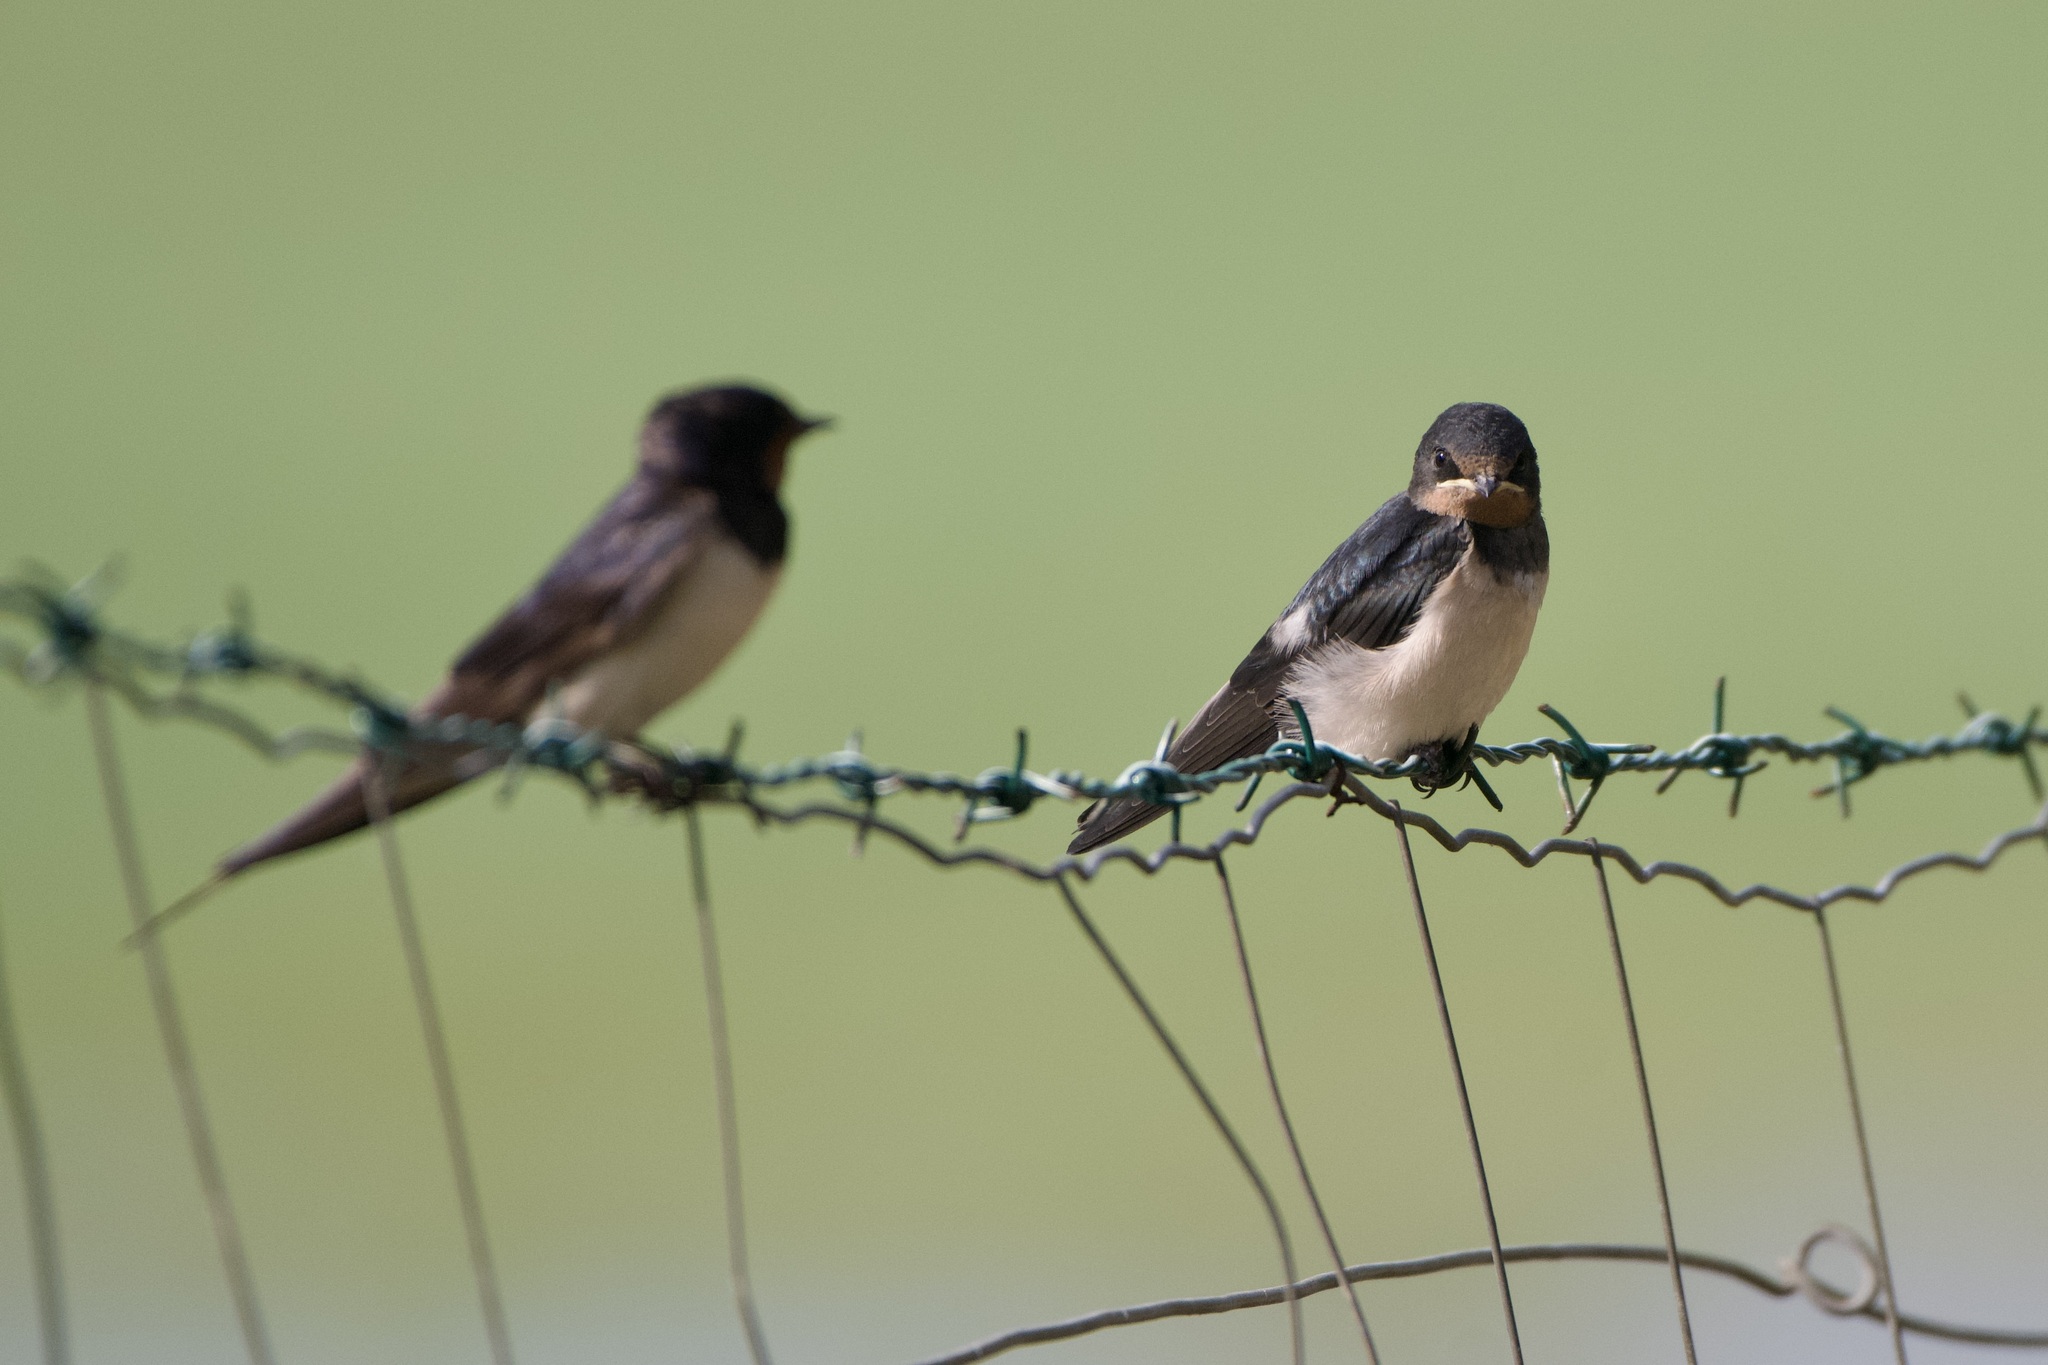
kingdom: Animalia
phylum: Chordata
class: Aves
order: Passeriformes
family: Hirundinidae
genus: Hirundo
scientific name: Hirundo rustica
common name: Barn swallow
